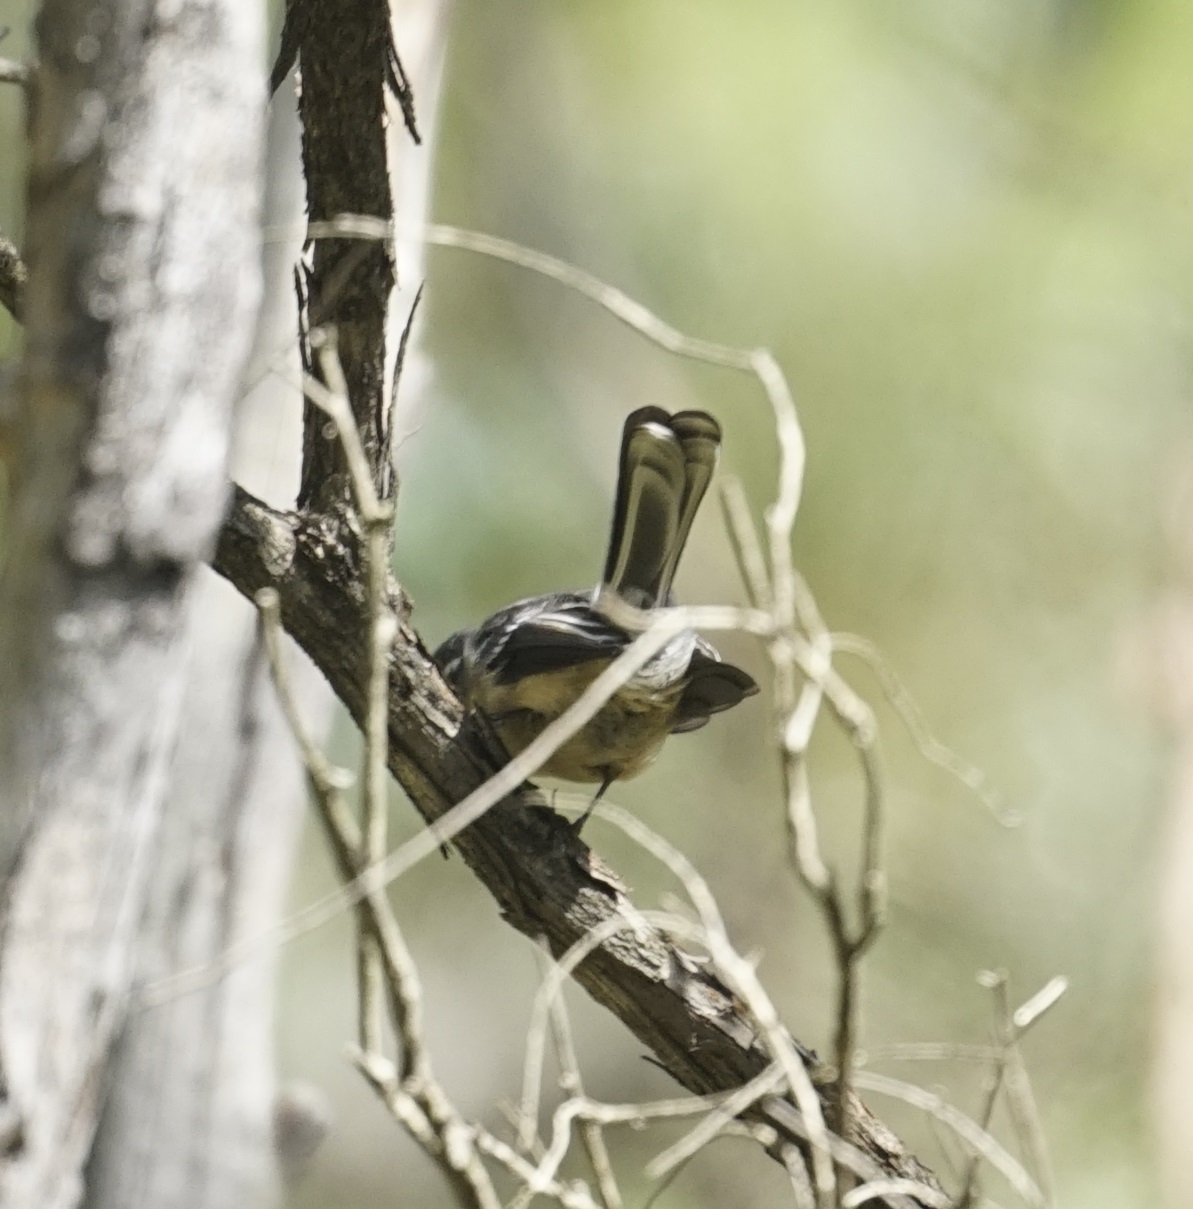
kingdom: Animalia
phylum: Chordata
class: Aves
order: Passeriformes
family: Rhipiduridae
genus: Rhipidura
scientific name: Rhipidura albiscapa
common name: Grey fantail
